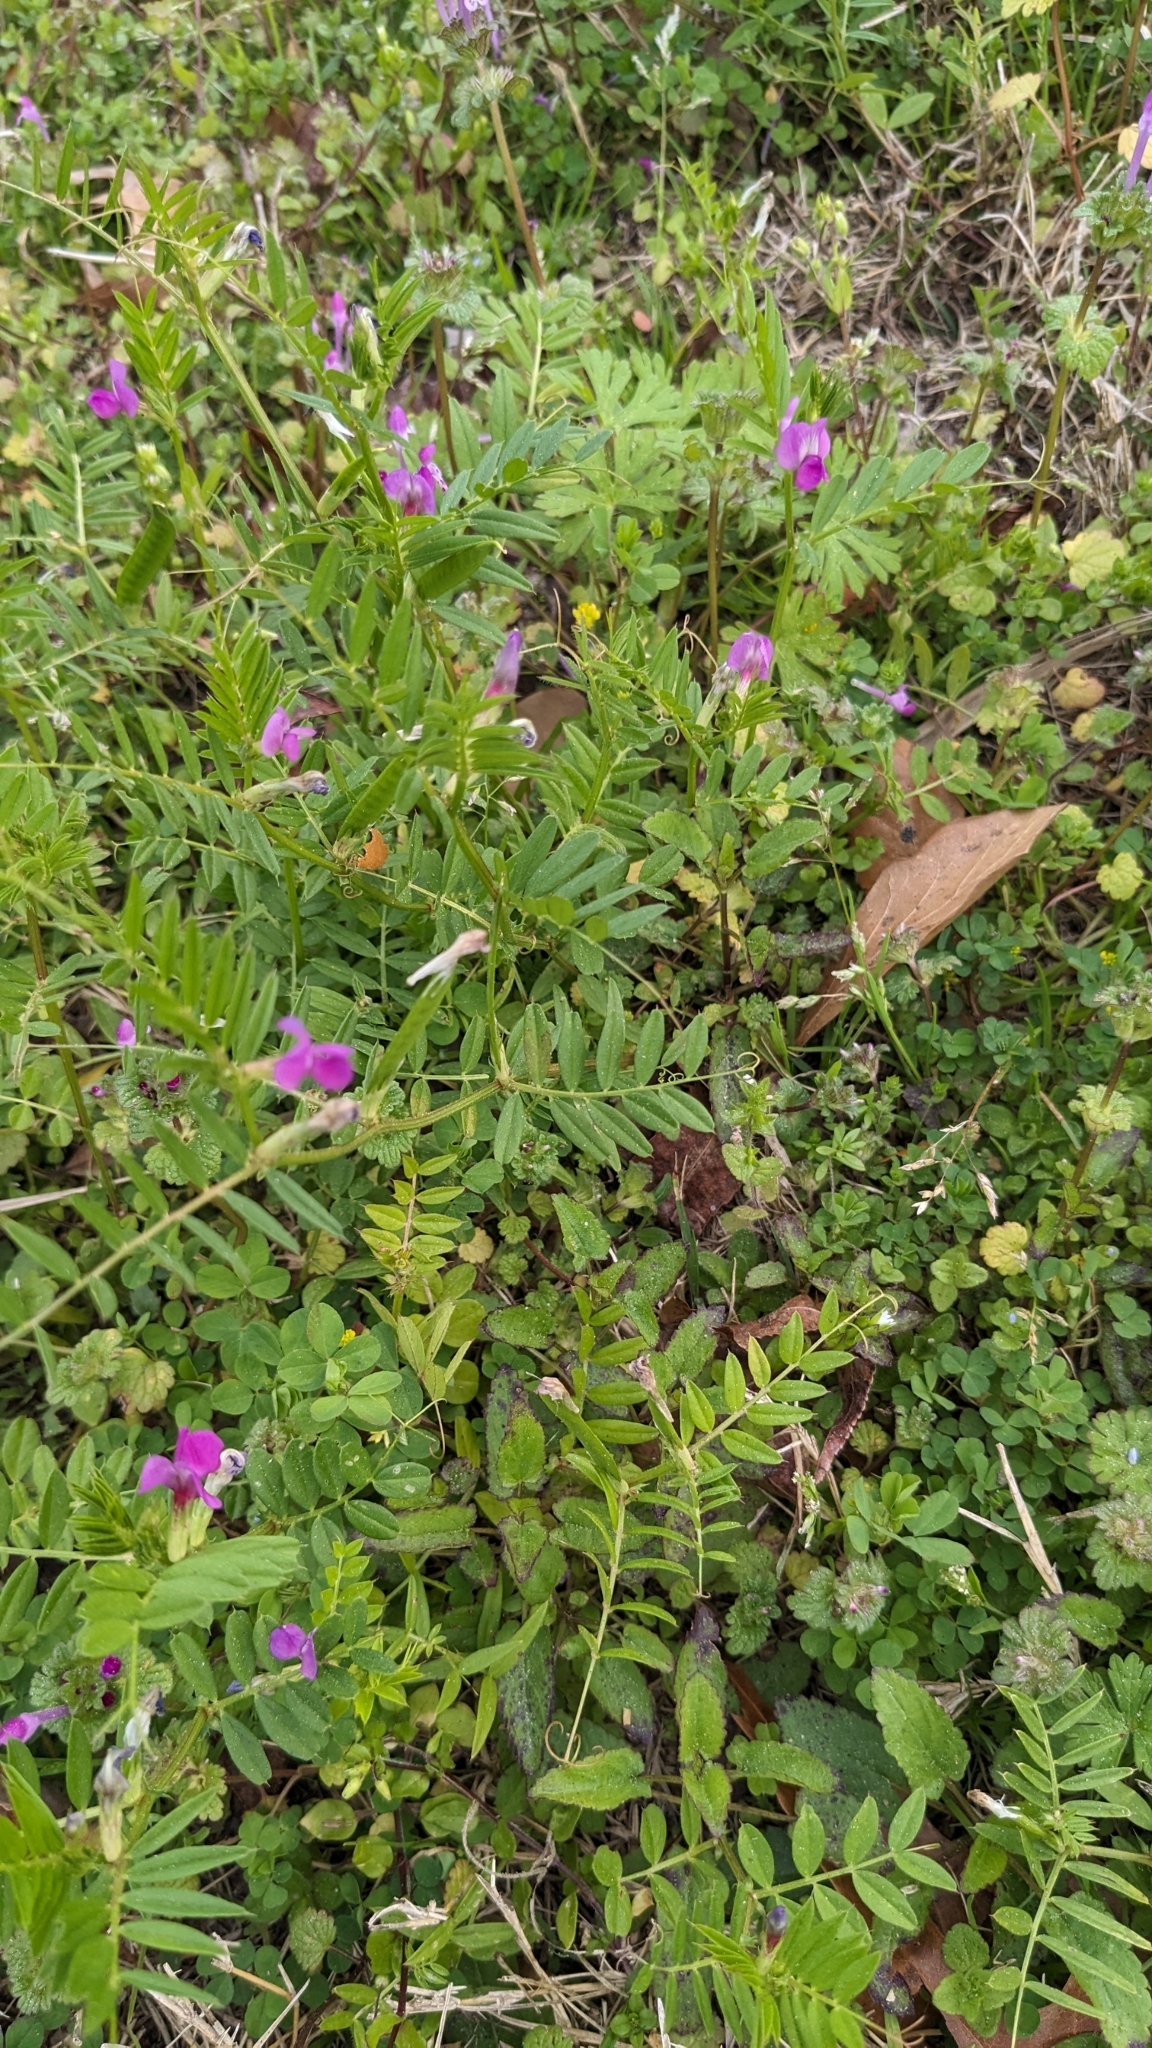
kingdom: Plantae
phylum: Tracheophyta
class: Magnoliopsida
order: Fabales
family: Fabaceae
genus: Vicia
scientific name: Vicia sativa
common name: Garden vetch
